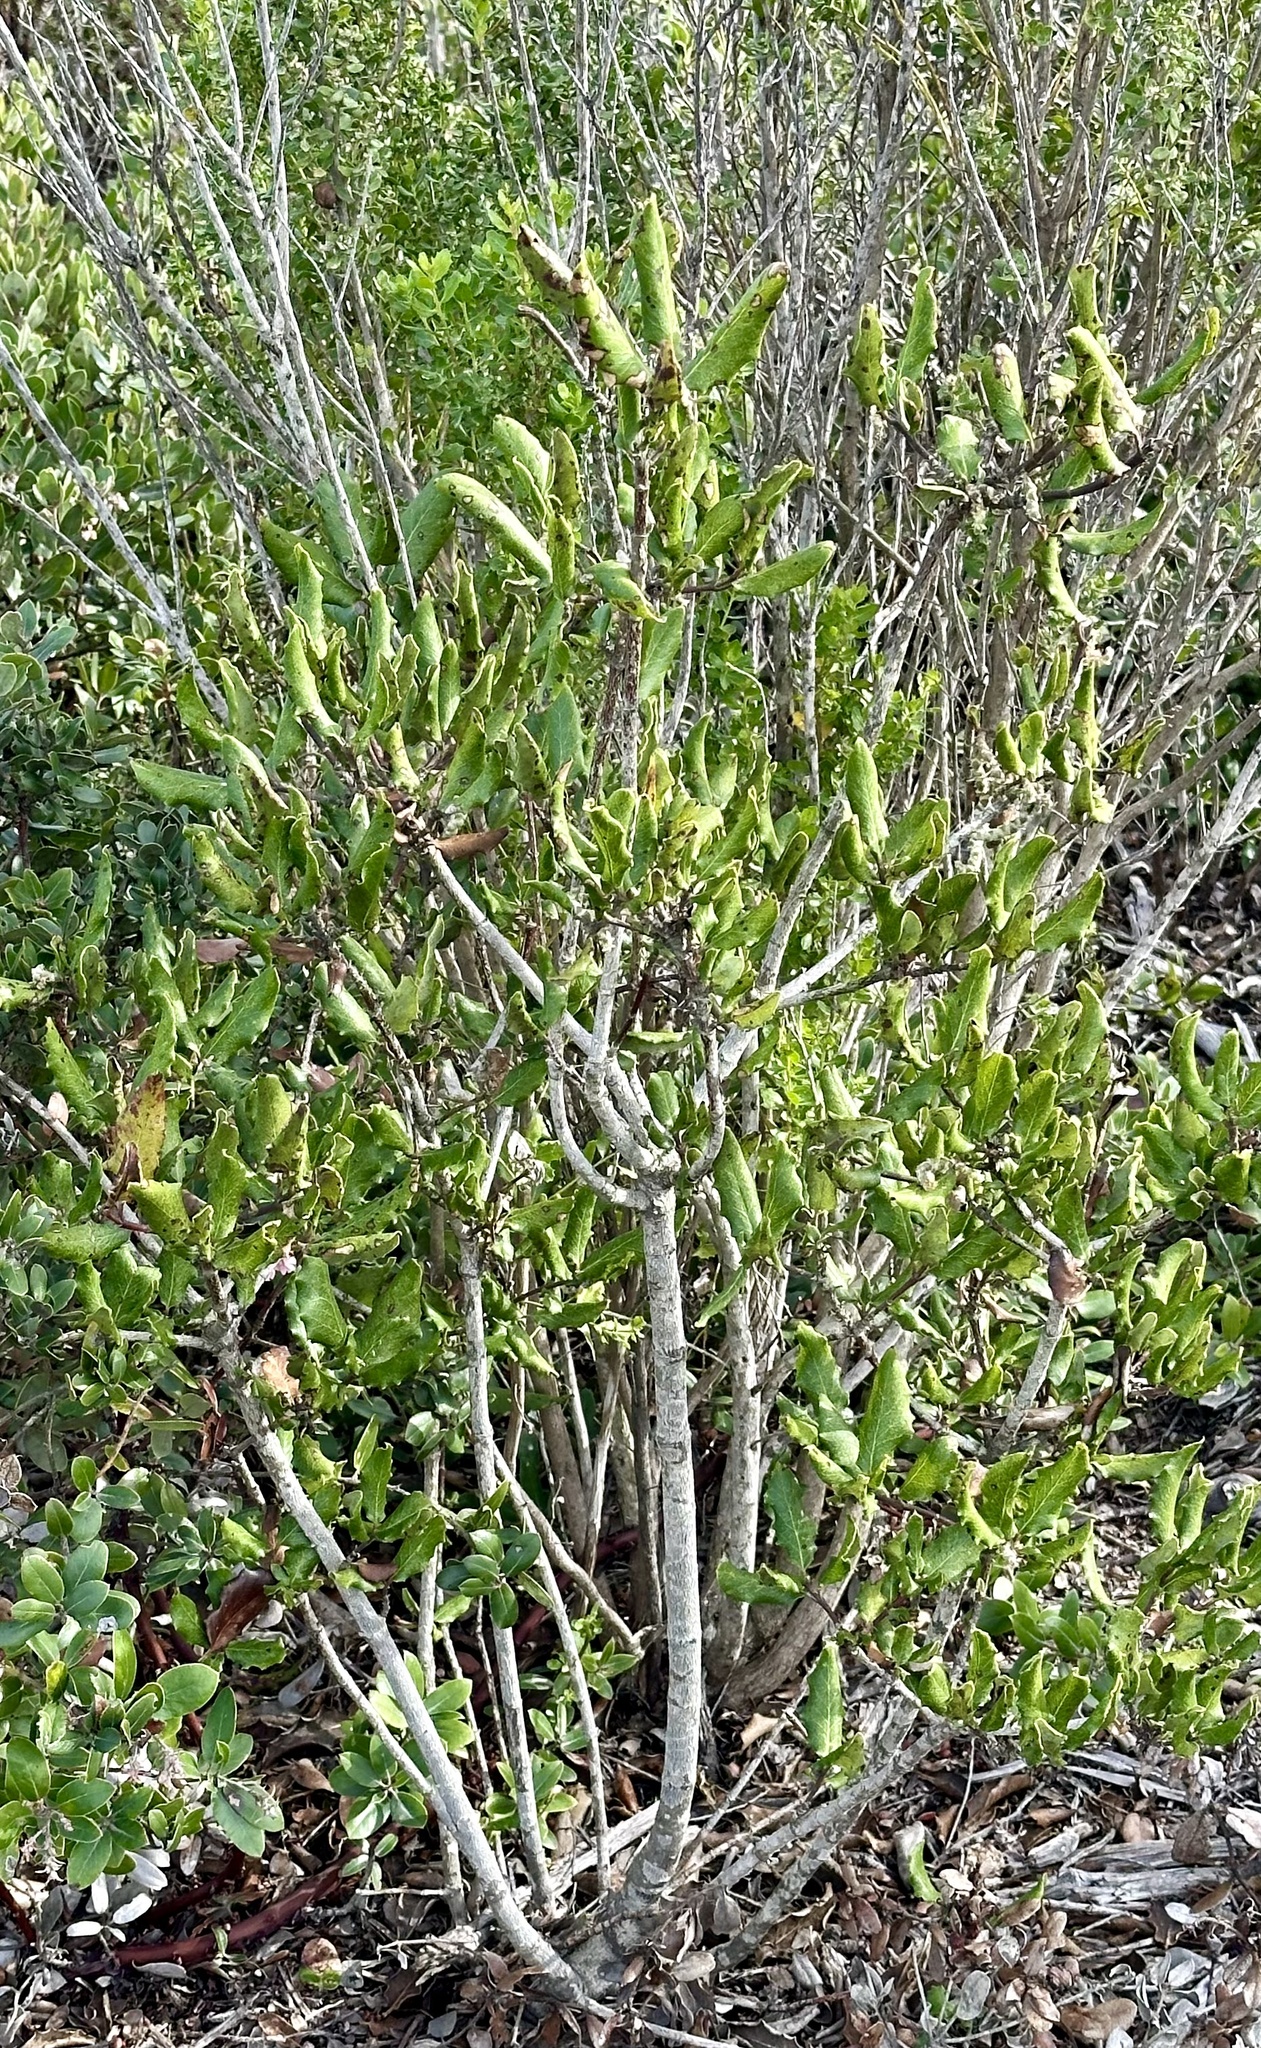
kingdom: Plantae
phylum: Tracheophyta
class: Magnoliopsida
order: Garryales
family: Garryaceae
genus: Garrya
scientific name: Garrya elliptica
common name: Silk-tassel
